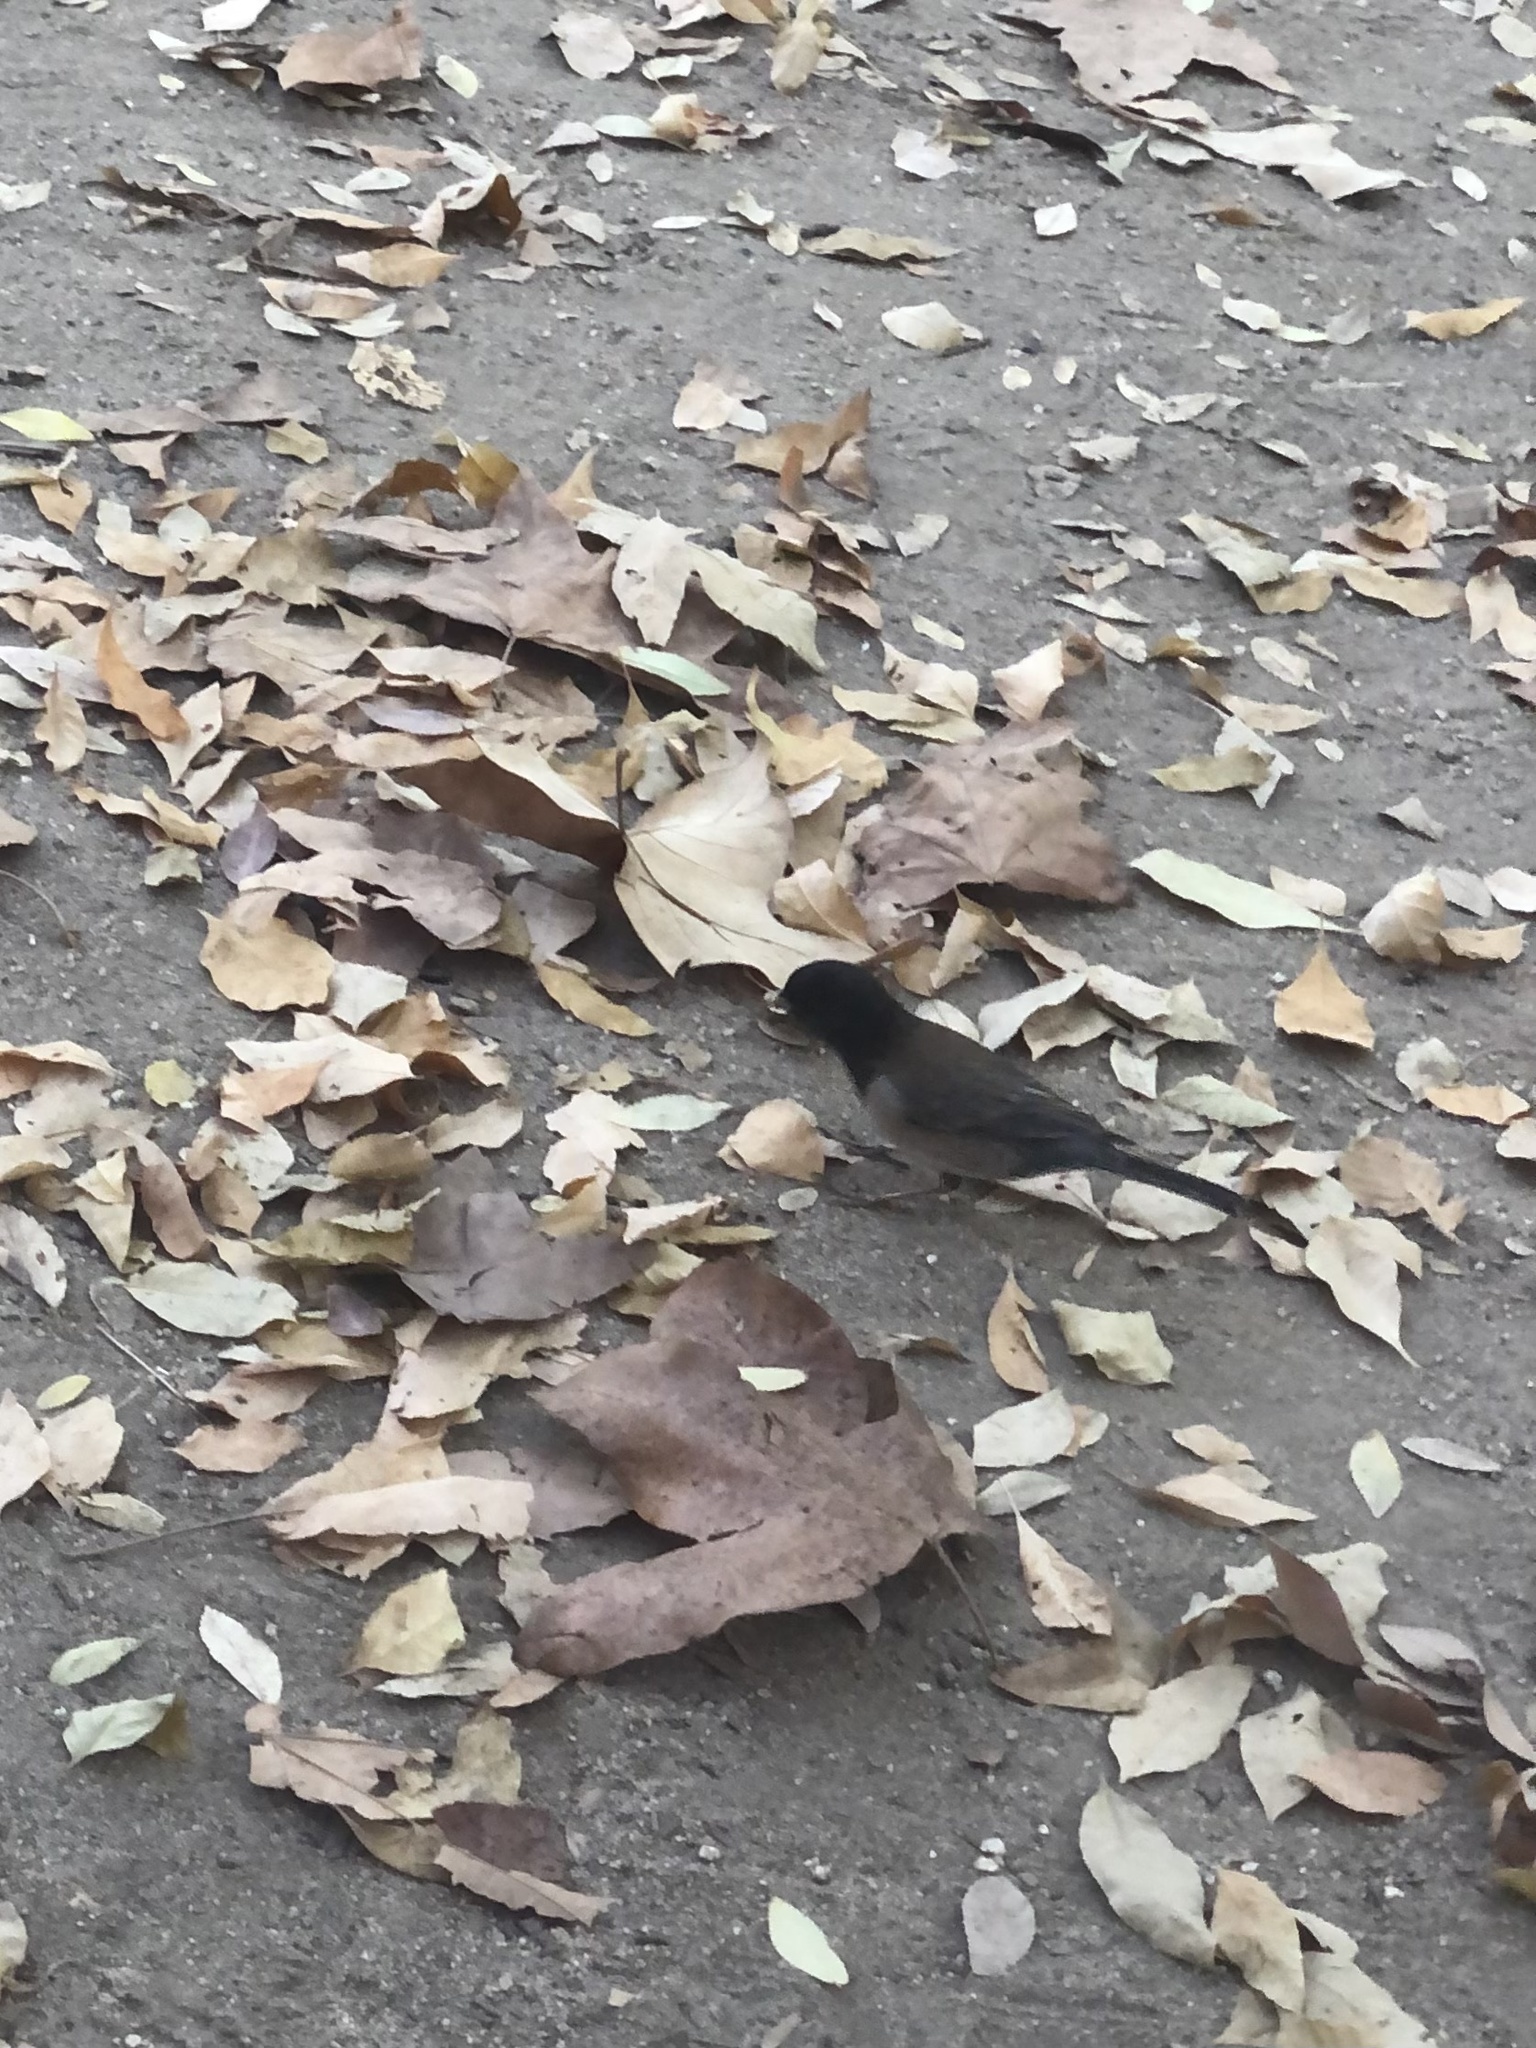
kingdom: Animalia
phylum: Chordata
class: Aves
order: Passeriformes
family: Passerellidae
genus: Junco
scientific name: Junco hyemalis
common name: Dark-eyed junco
